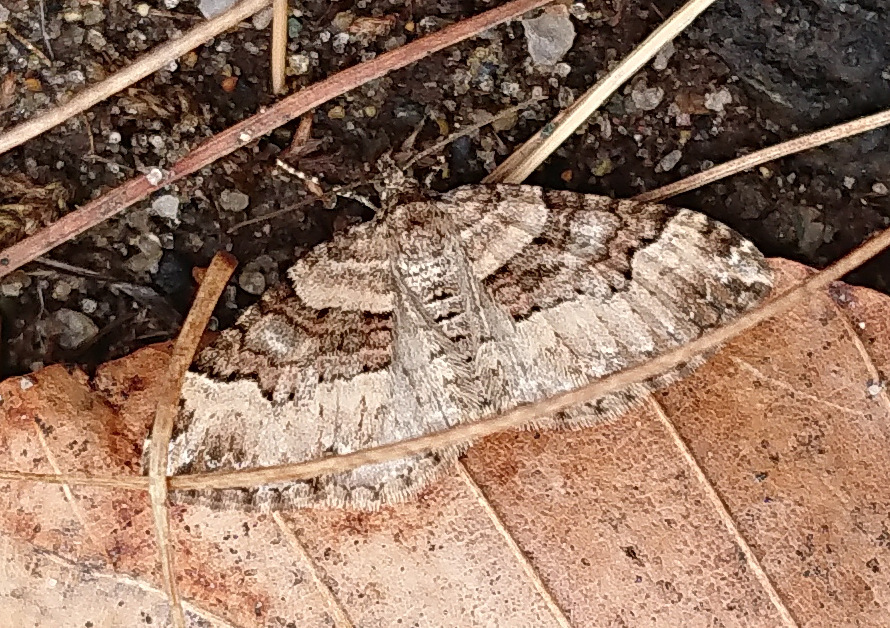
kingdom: Animalia
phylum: Arthropoda
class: Insecta
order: Lepidoptera
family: Geometridae
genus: Xanthorhoe
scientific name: Xanthorhoe lacustrata
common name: Toothed brown carpet
